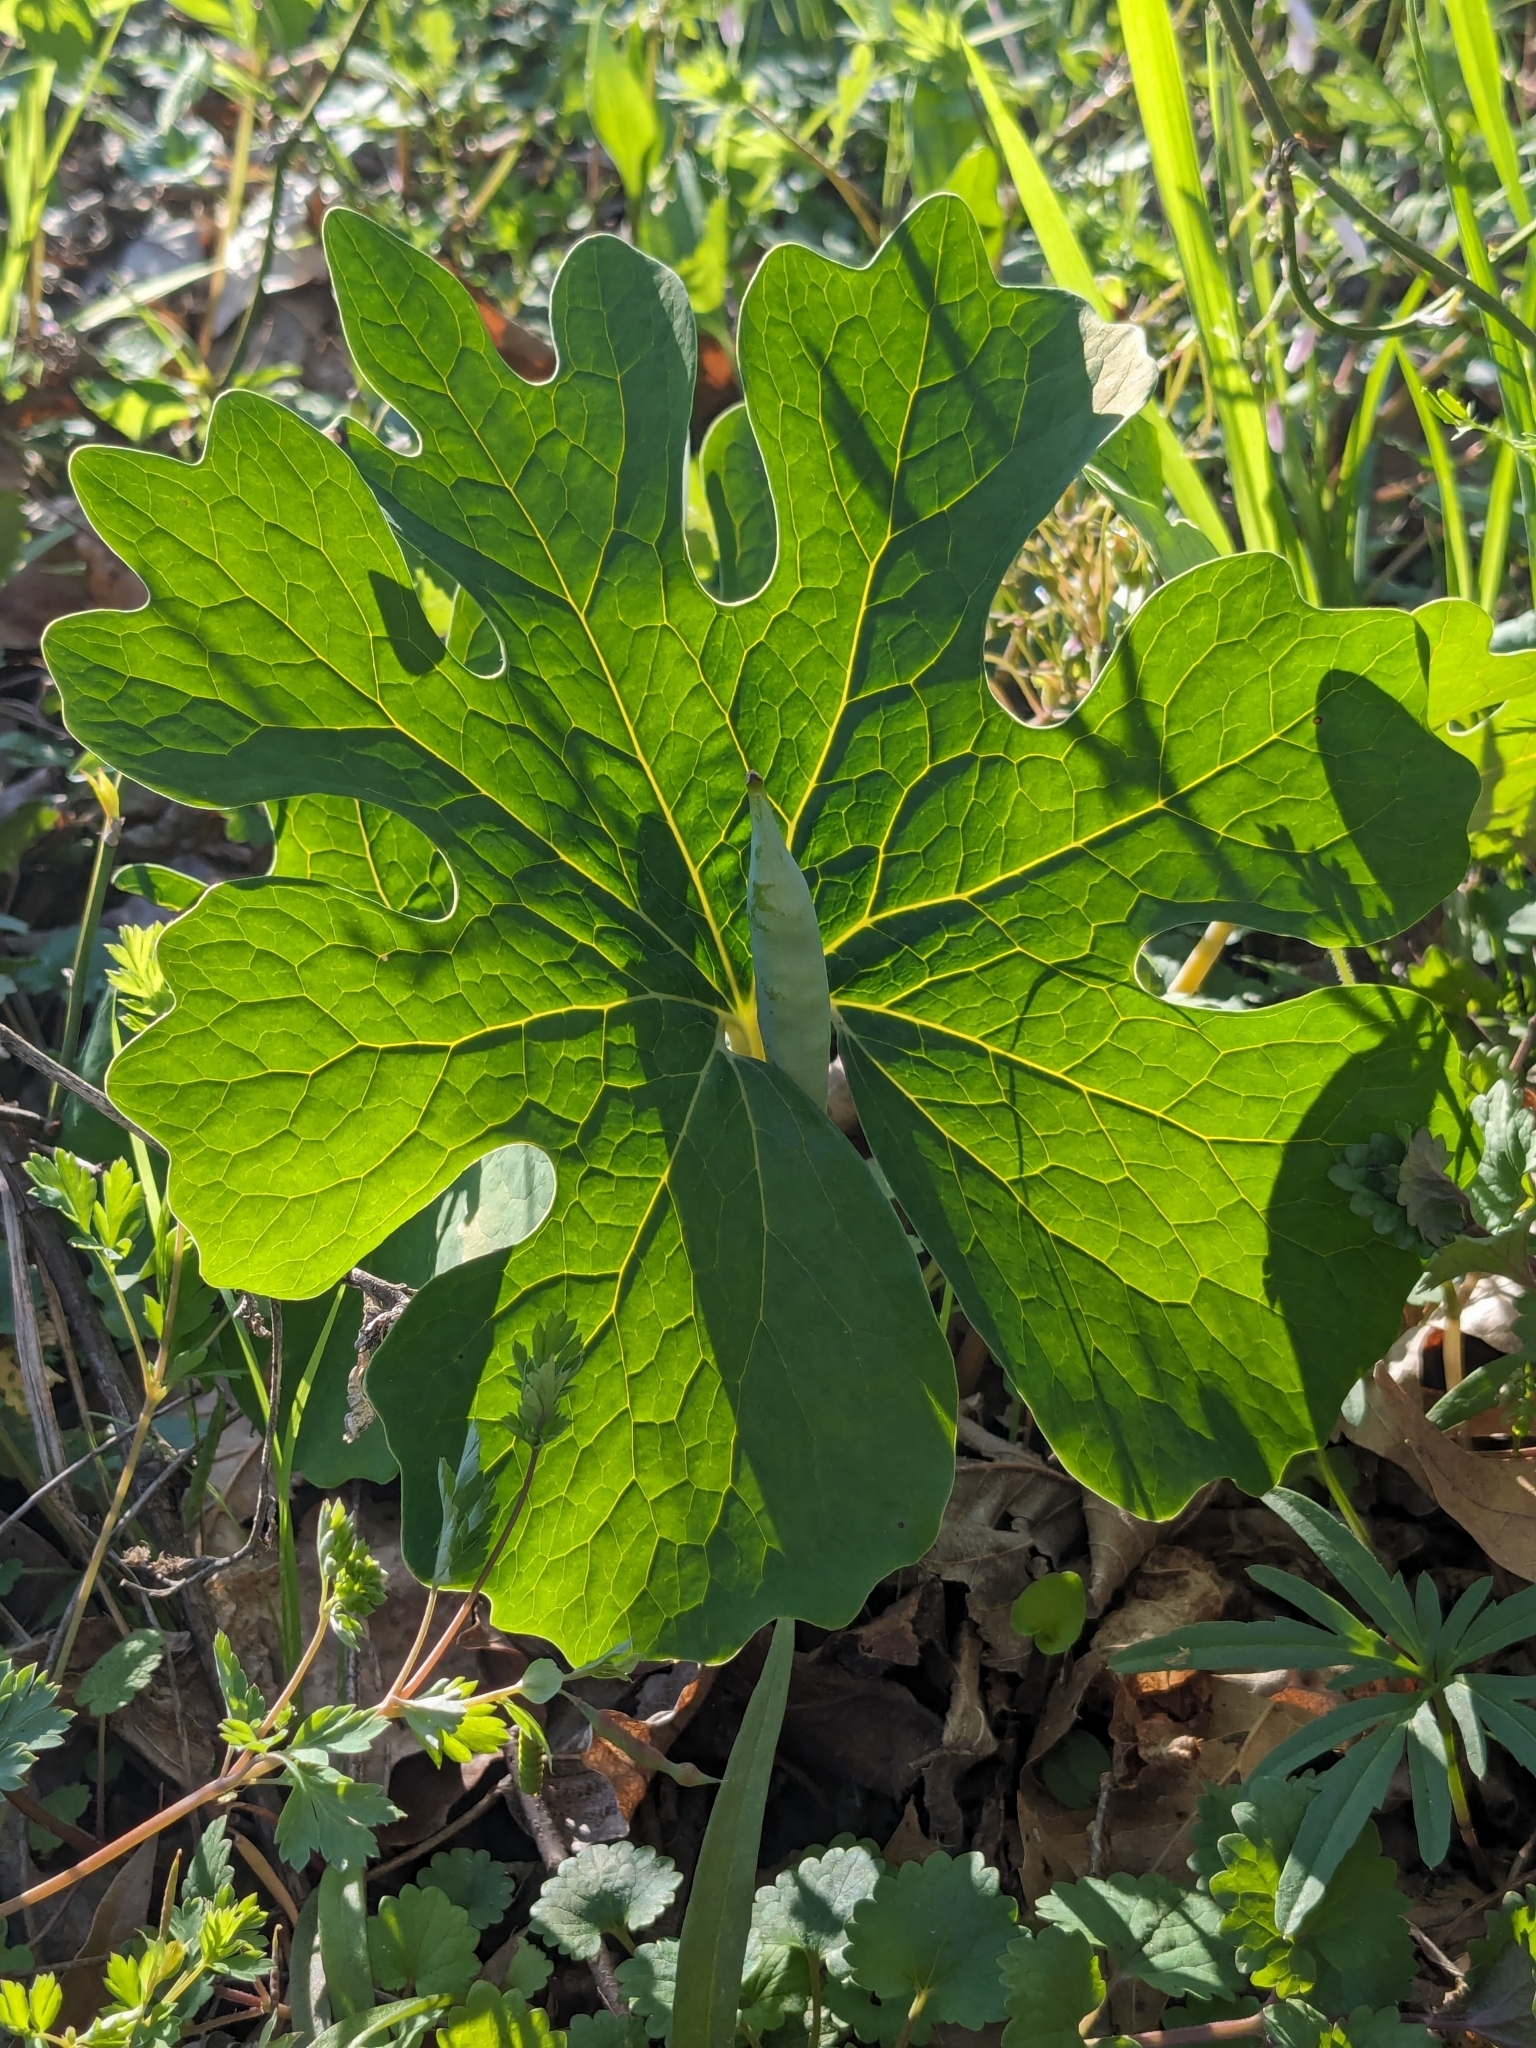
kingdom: Plantae
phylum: Tracheophyta
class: Magnoliopsida
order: Ranunculales
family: Papaveraceae
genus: Sanguinaria
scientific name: Sanguinaria canadensis
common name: Bloodroot
